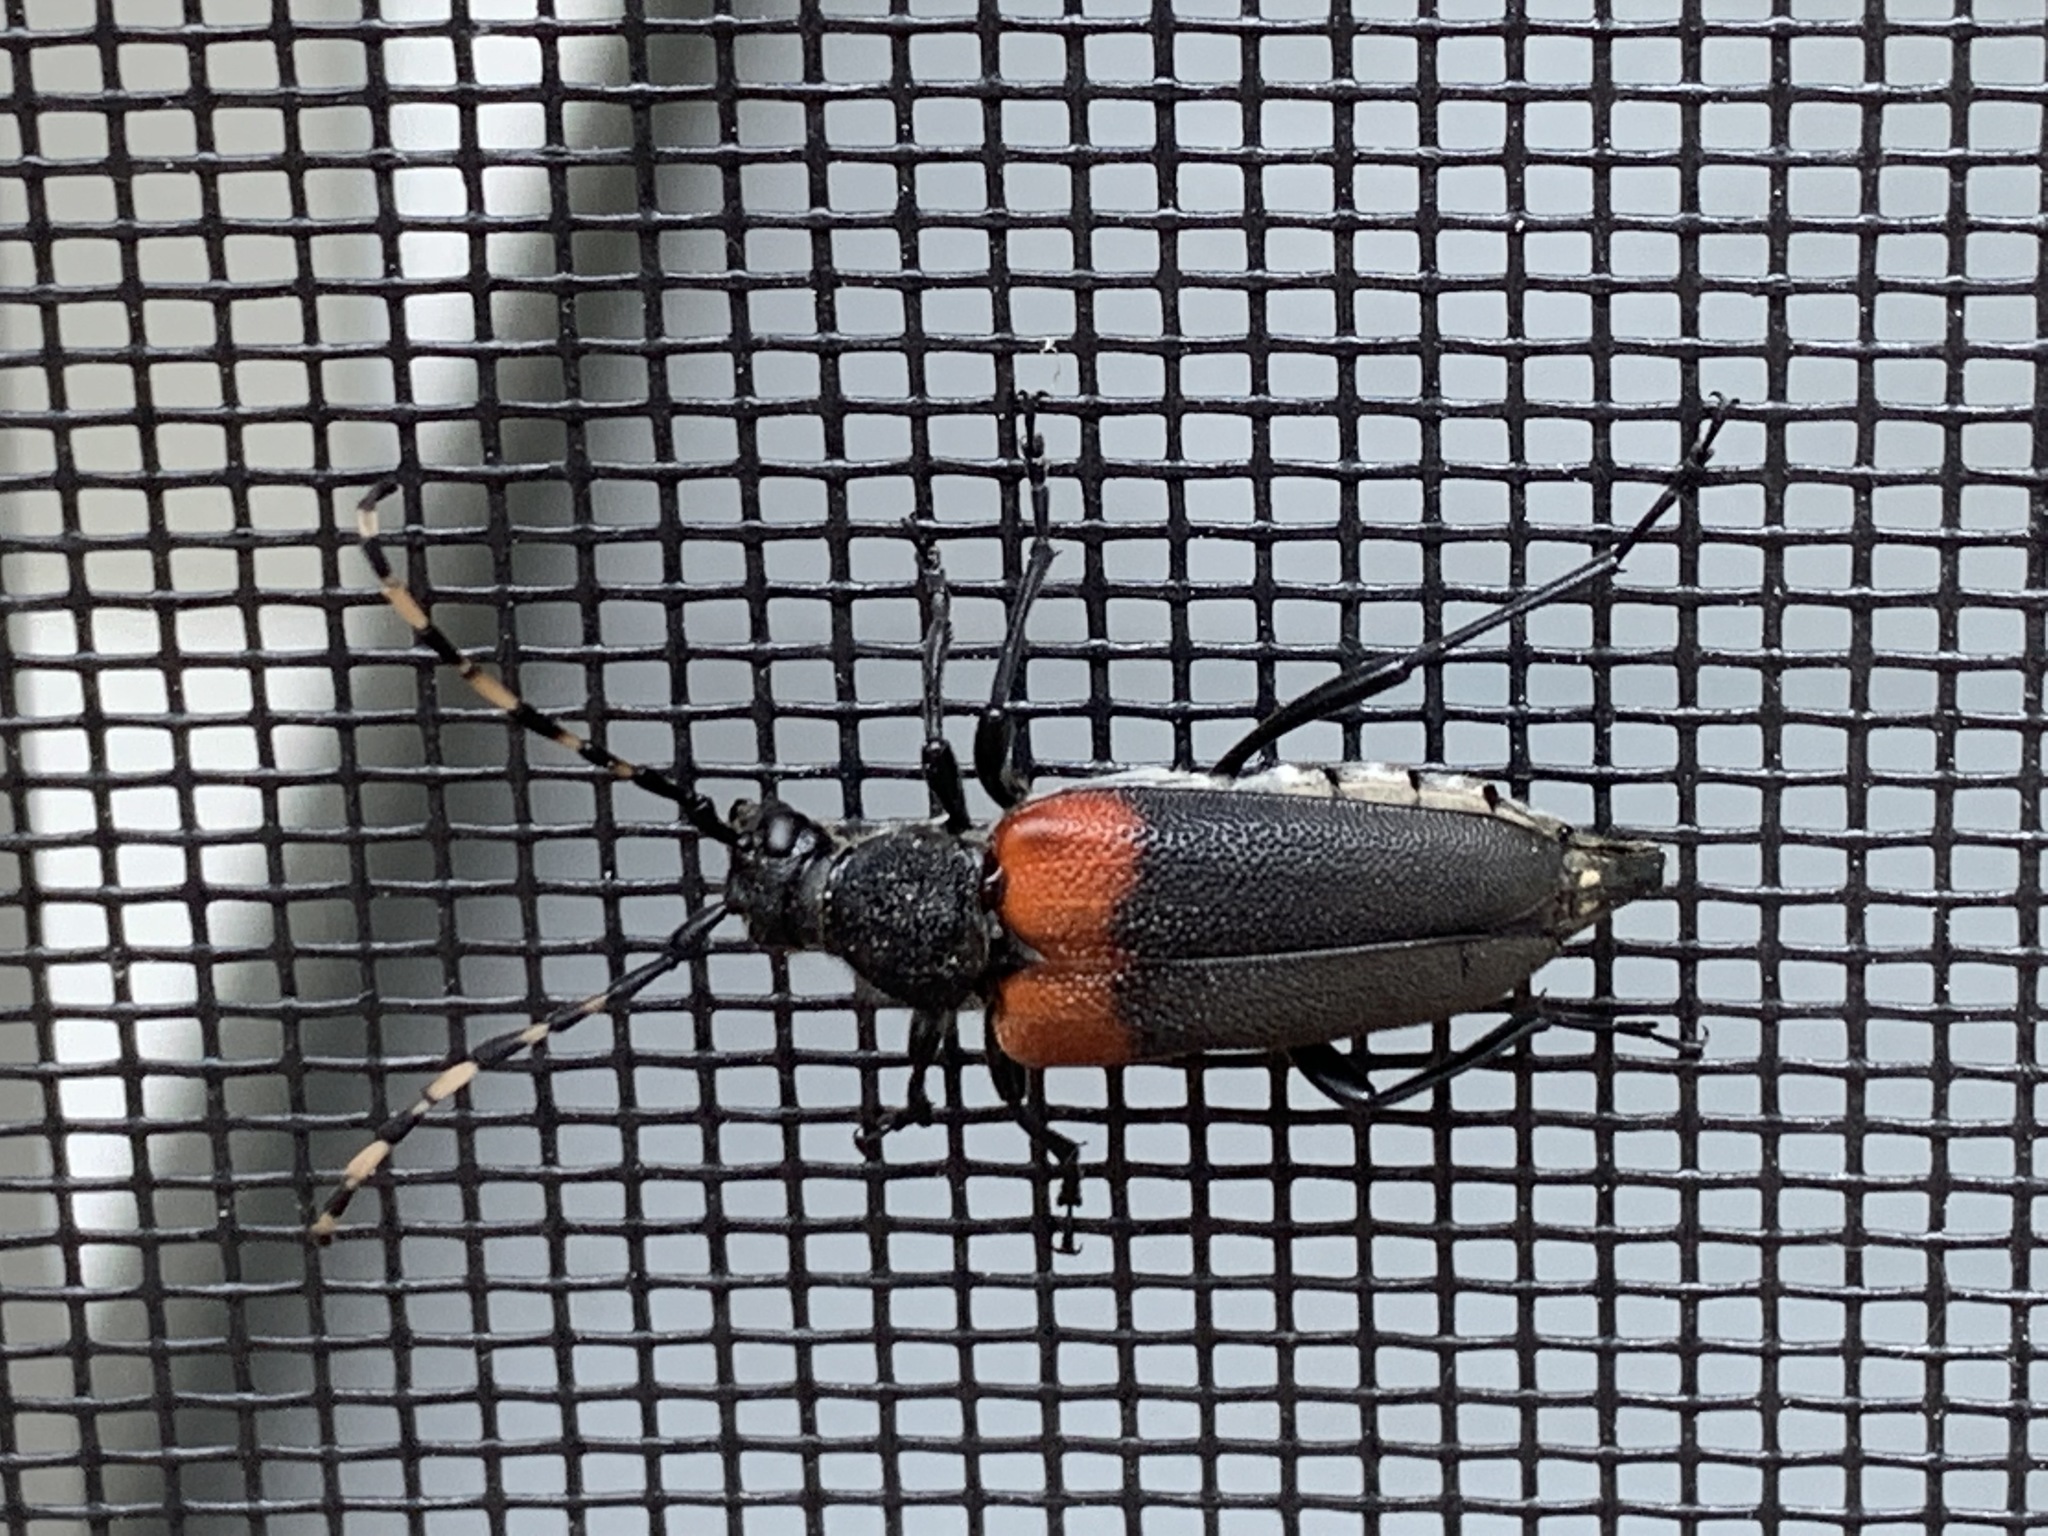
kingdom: Animalia
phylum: Arthropoda
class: Insecta
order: Coleoptera
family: Cerambycidae
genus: Stictoleptura
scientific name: Stictoleptura canadensis
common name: Red-shouldered pine borer
